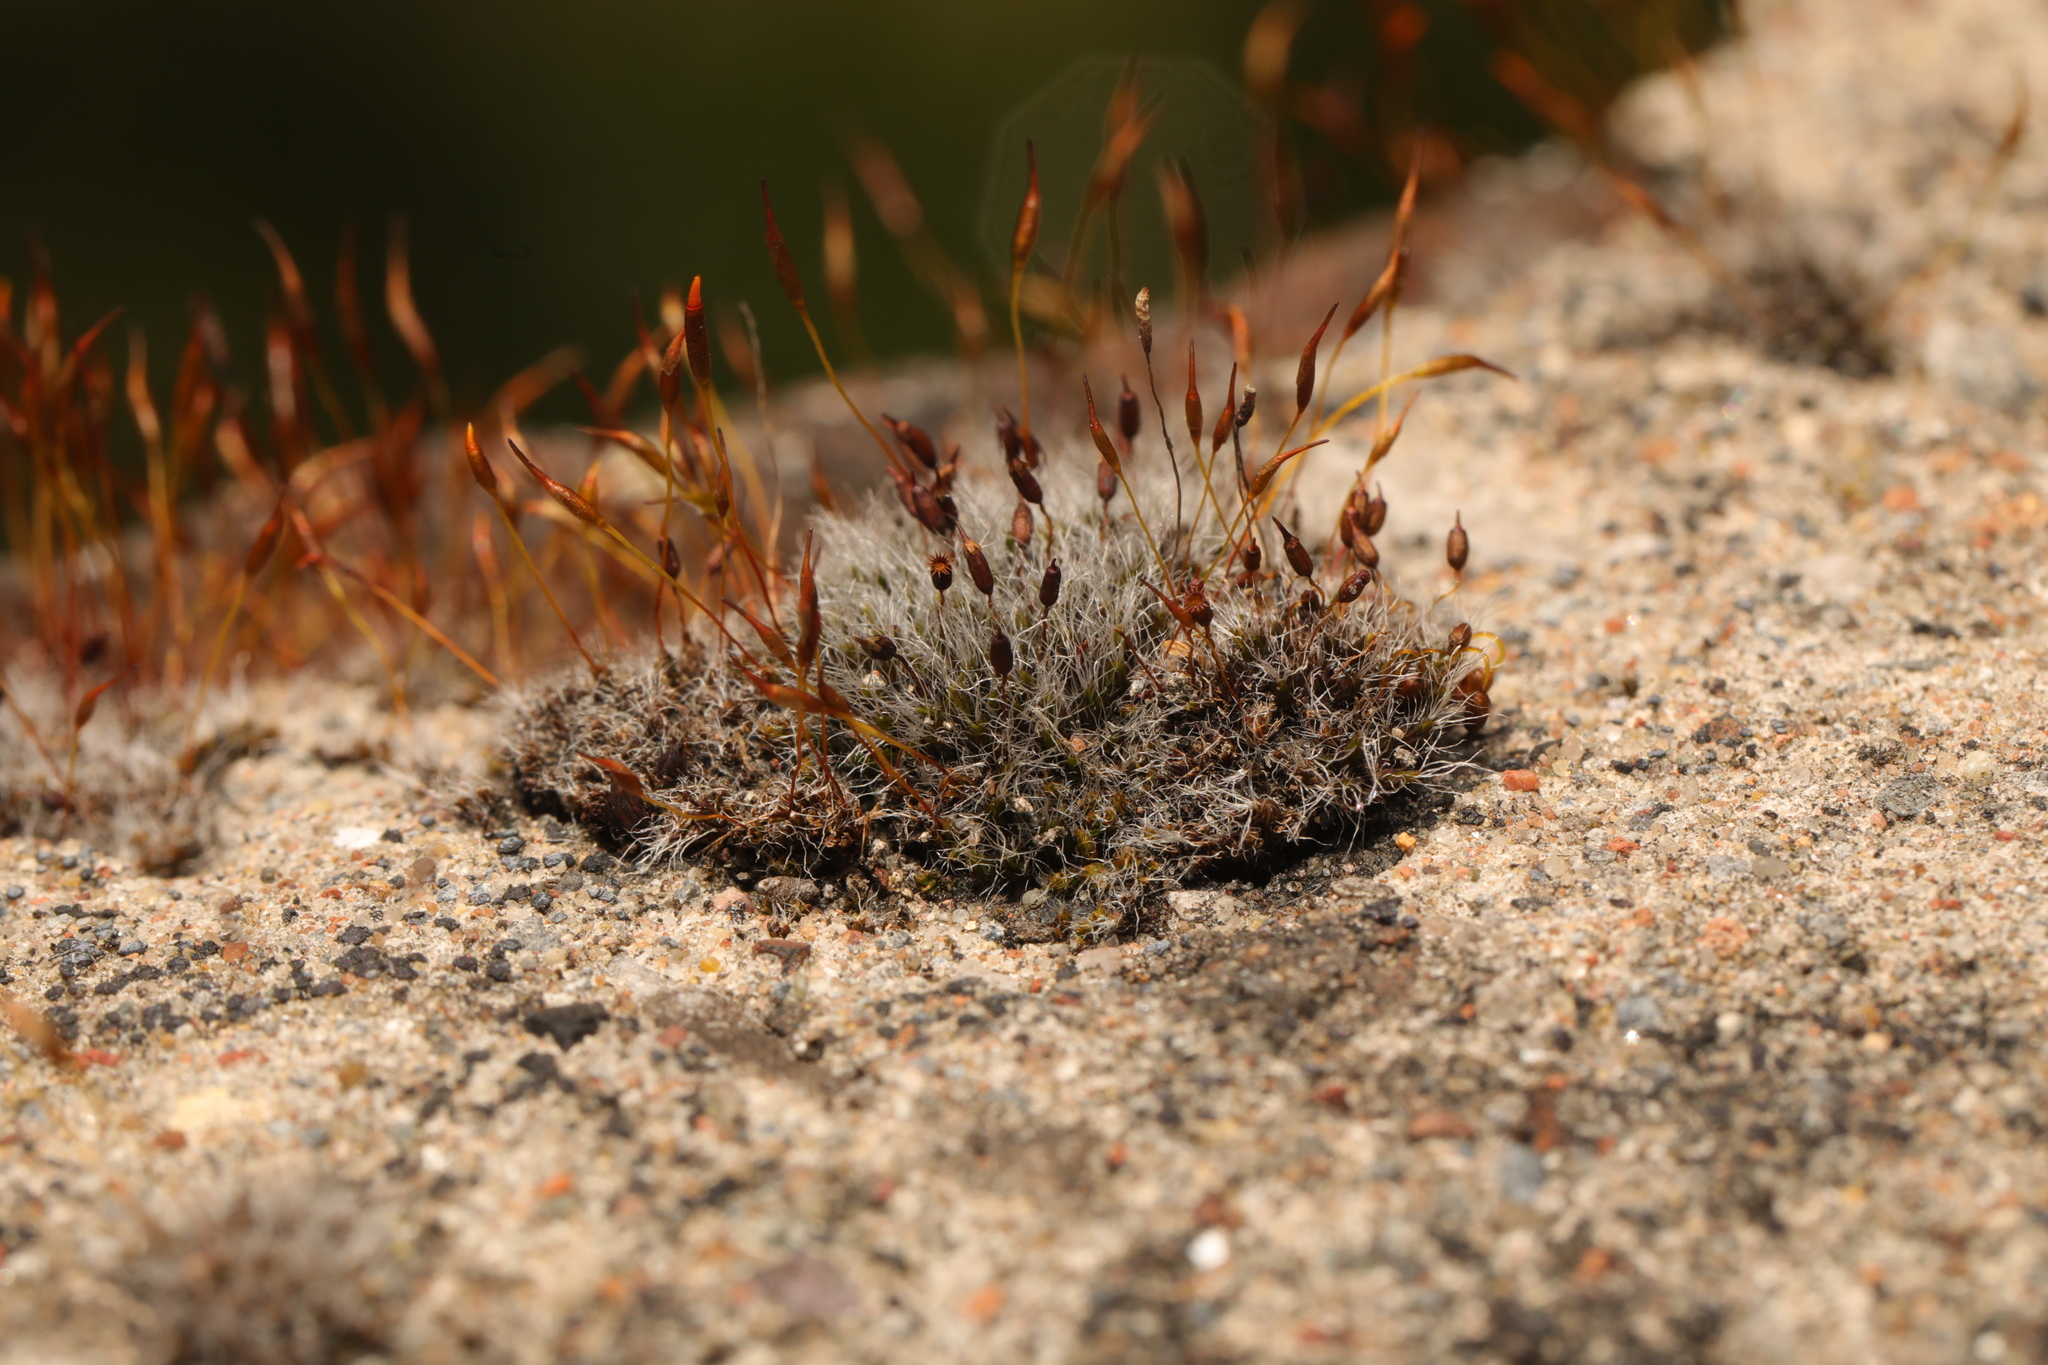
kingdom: Plantae
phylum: Bryophyta
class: Bryopsida
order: Grimmiales
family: Grimmiaceae
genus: Grimmia
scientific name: Grimmia pulvinata
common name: Grey-cushioned grimmia
